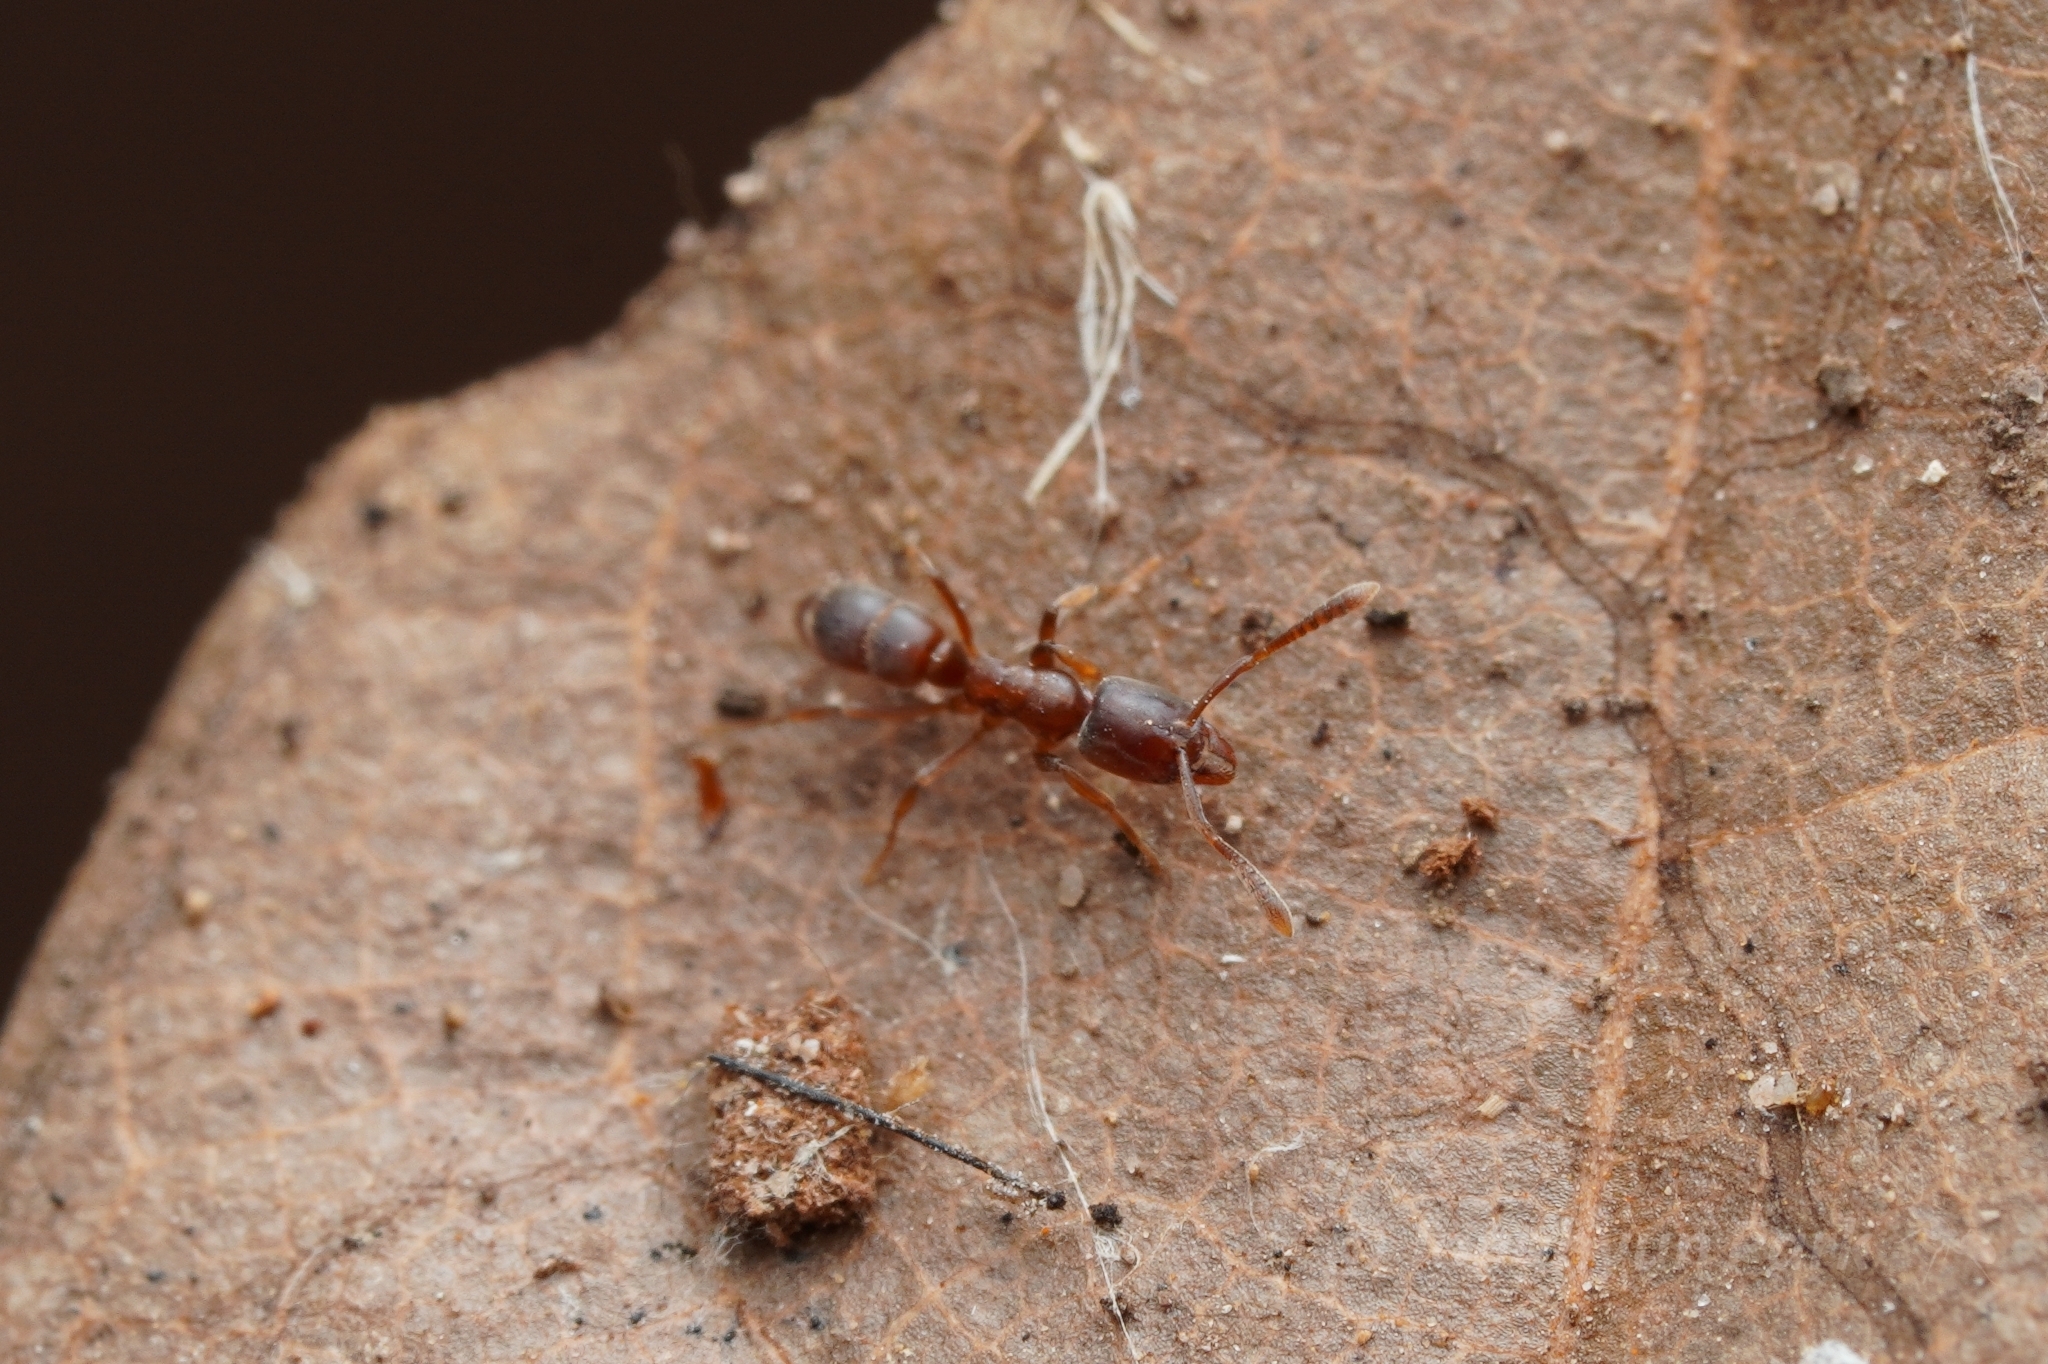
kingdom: Animalia
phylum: Arthropoda
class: Insecta
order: Hymenoptera
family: Formicidae
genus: Hypoponera
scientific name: Hypoponera opacior
